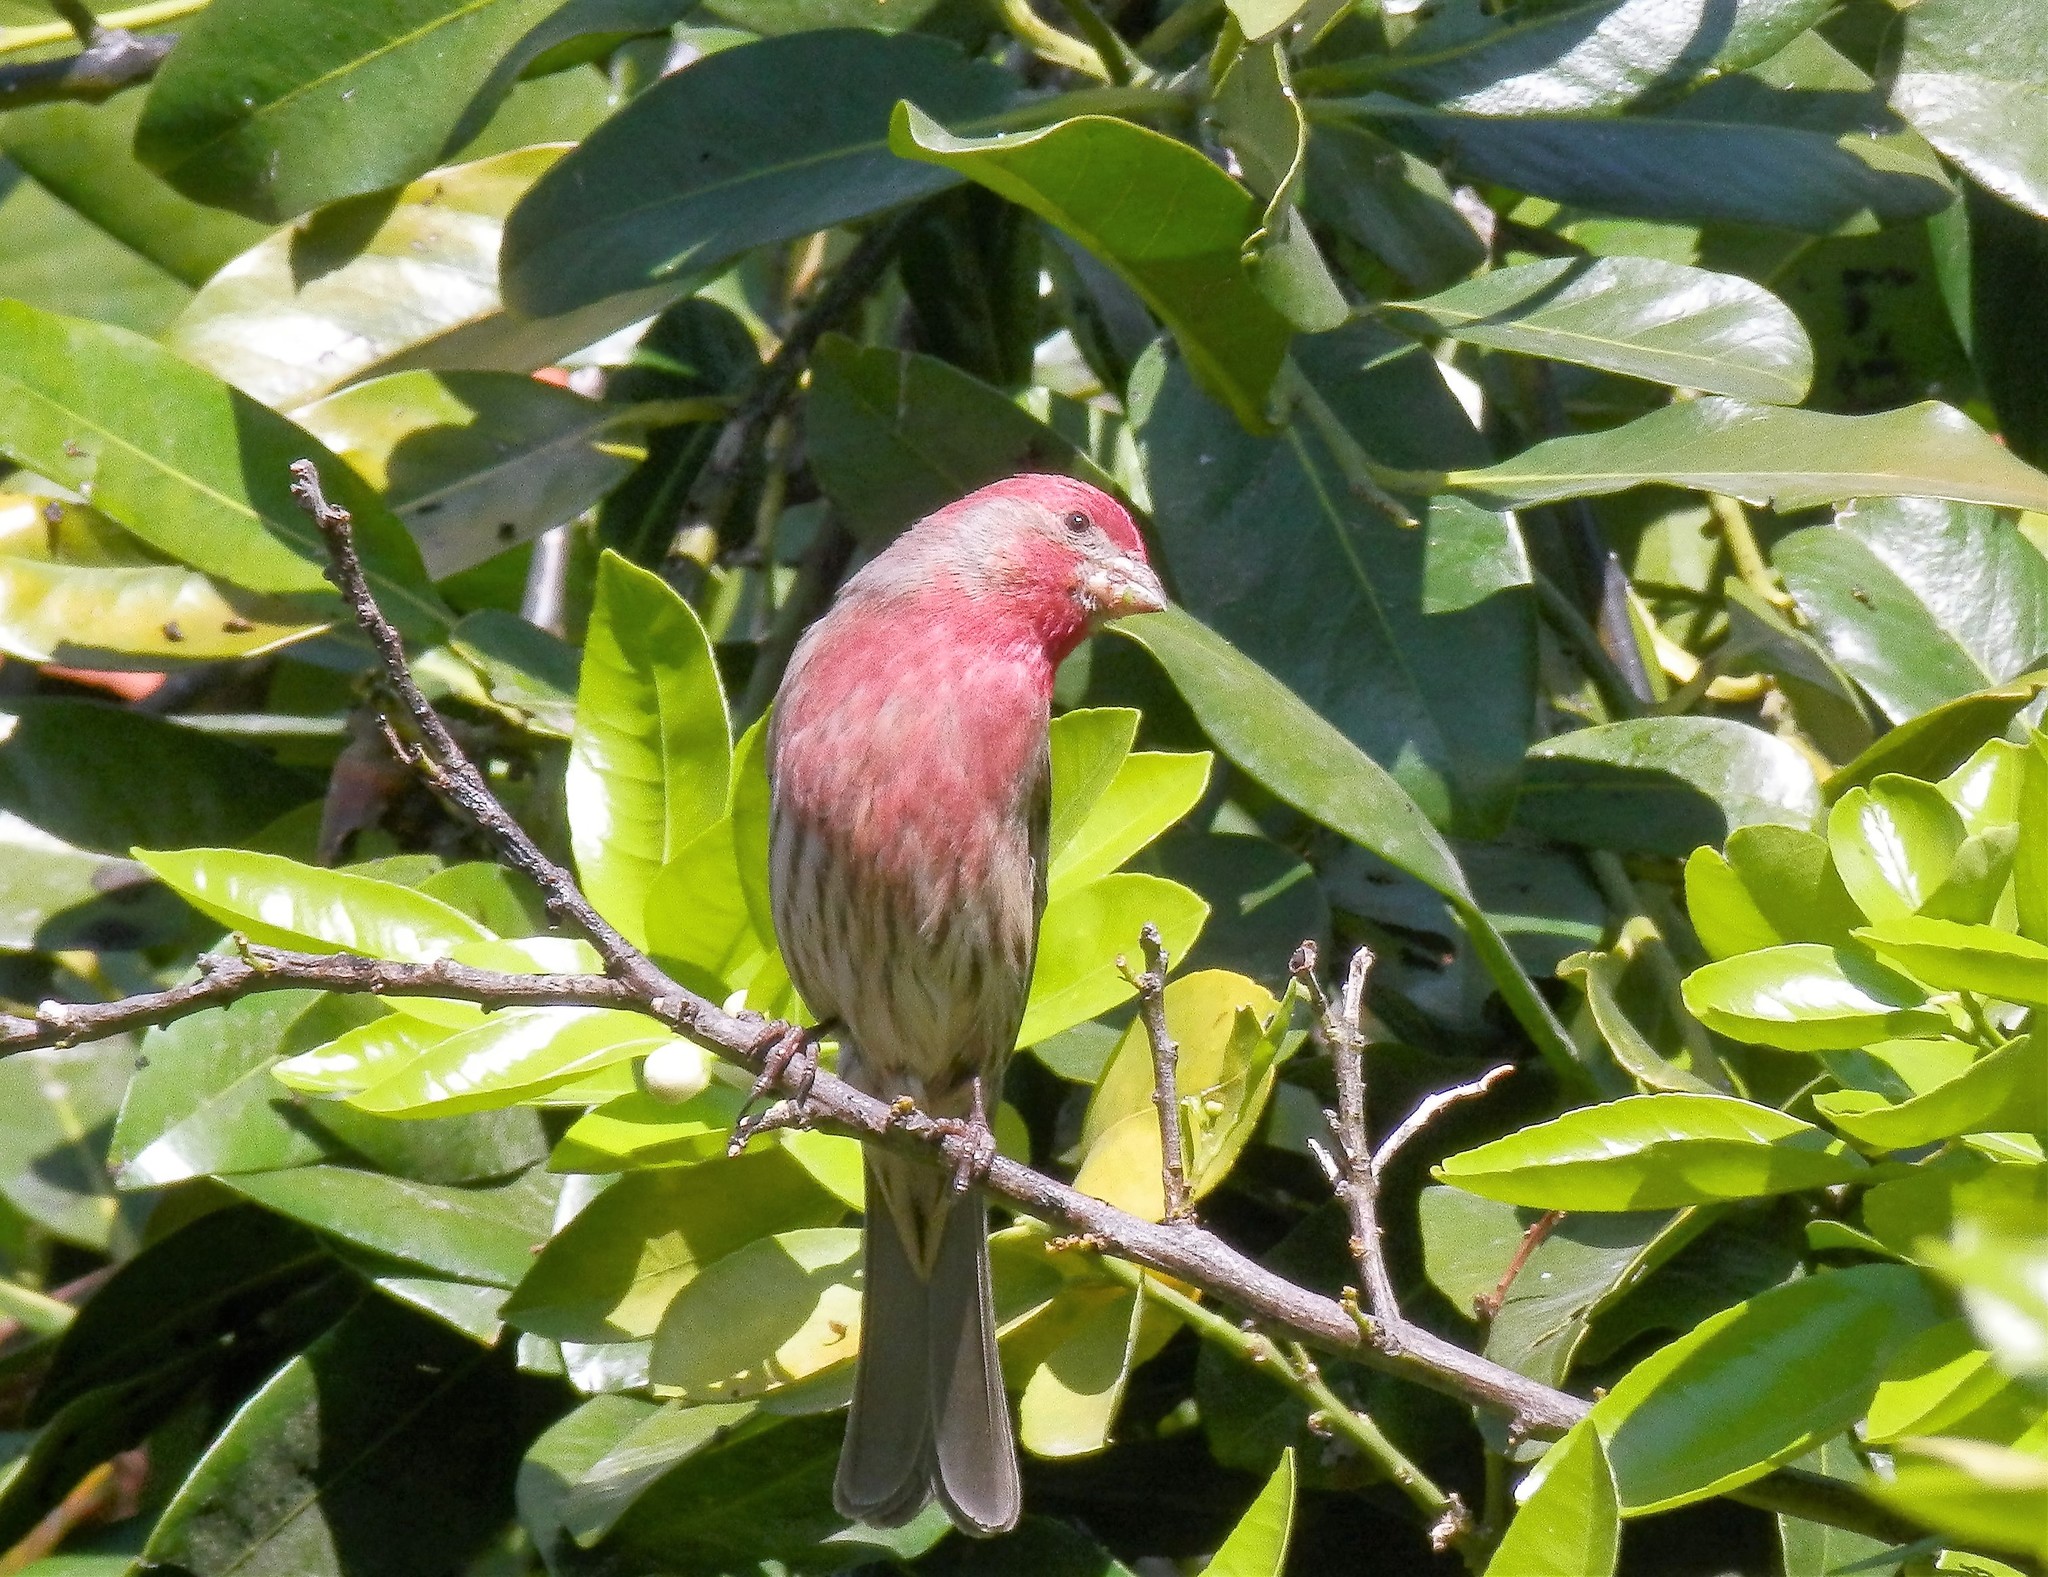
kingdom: Animalia
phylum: Chordata
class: Aves
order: Passeriformes
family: Fringillidae
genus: Haemorhous
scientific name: Haemorhous mexicanus
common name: House finch
